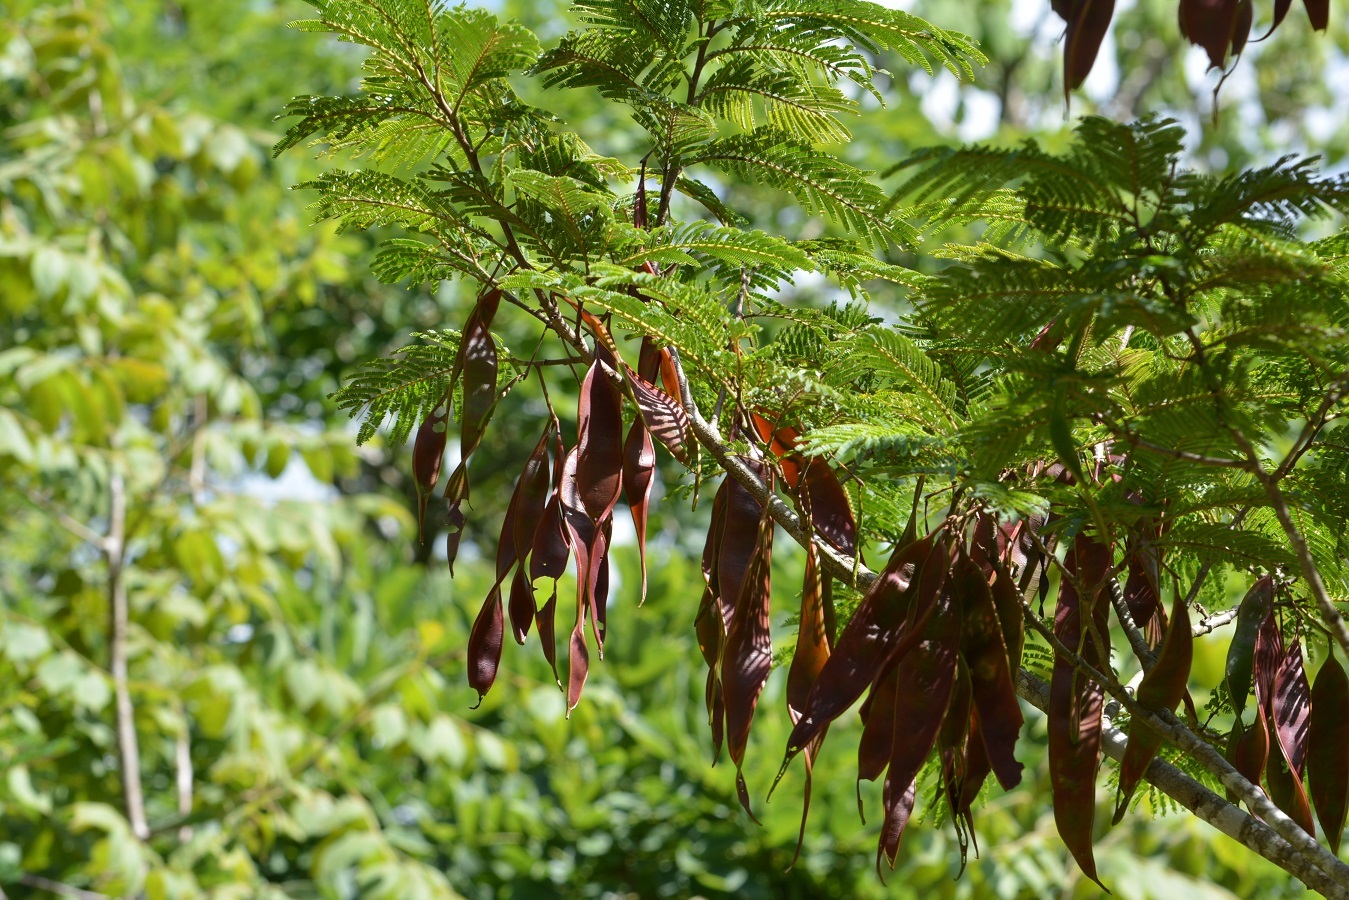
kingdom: Plantae
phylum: Tracheophyta
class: Magnoliopsida
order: Fabales
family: Fabaceae
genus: Lysiloma
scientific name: Lysiloma auritum
